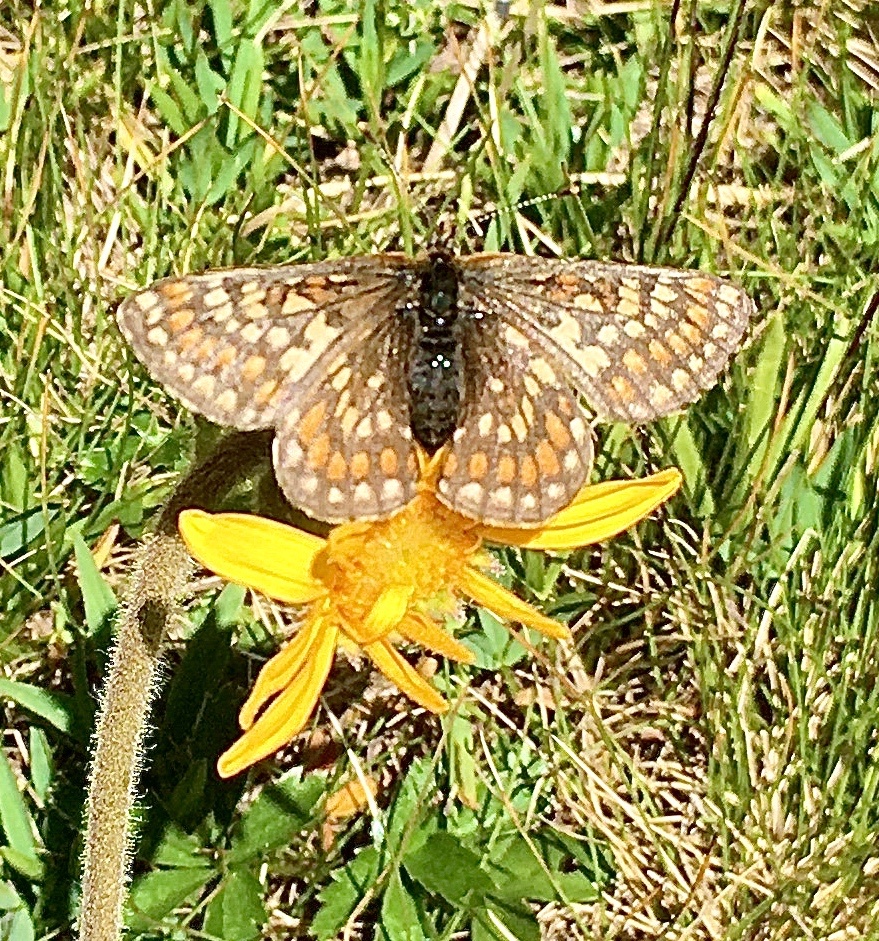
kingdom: Animalia
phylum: Arthropoda
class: Insecta
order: Lepidoptera
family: Nymphalidae
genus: Hypodryas
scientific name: Hypodryas intermedia
